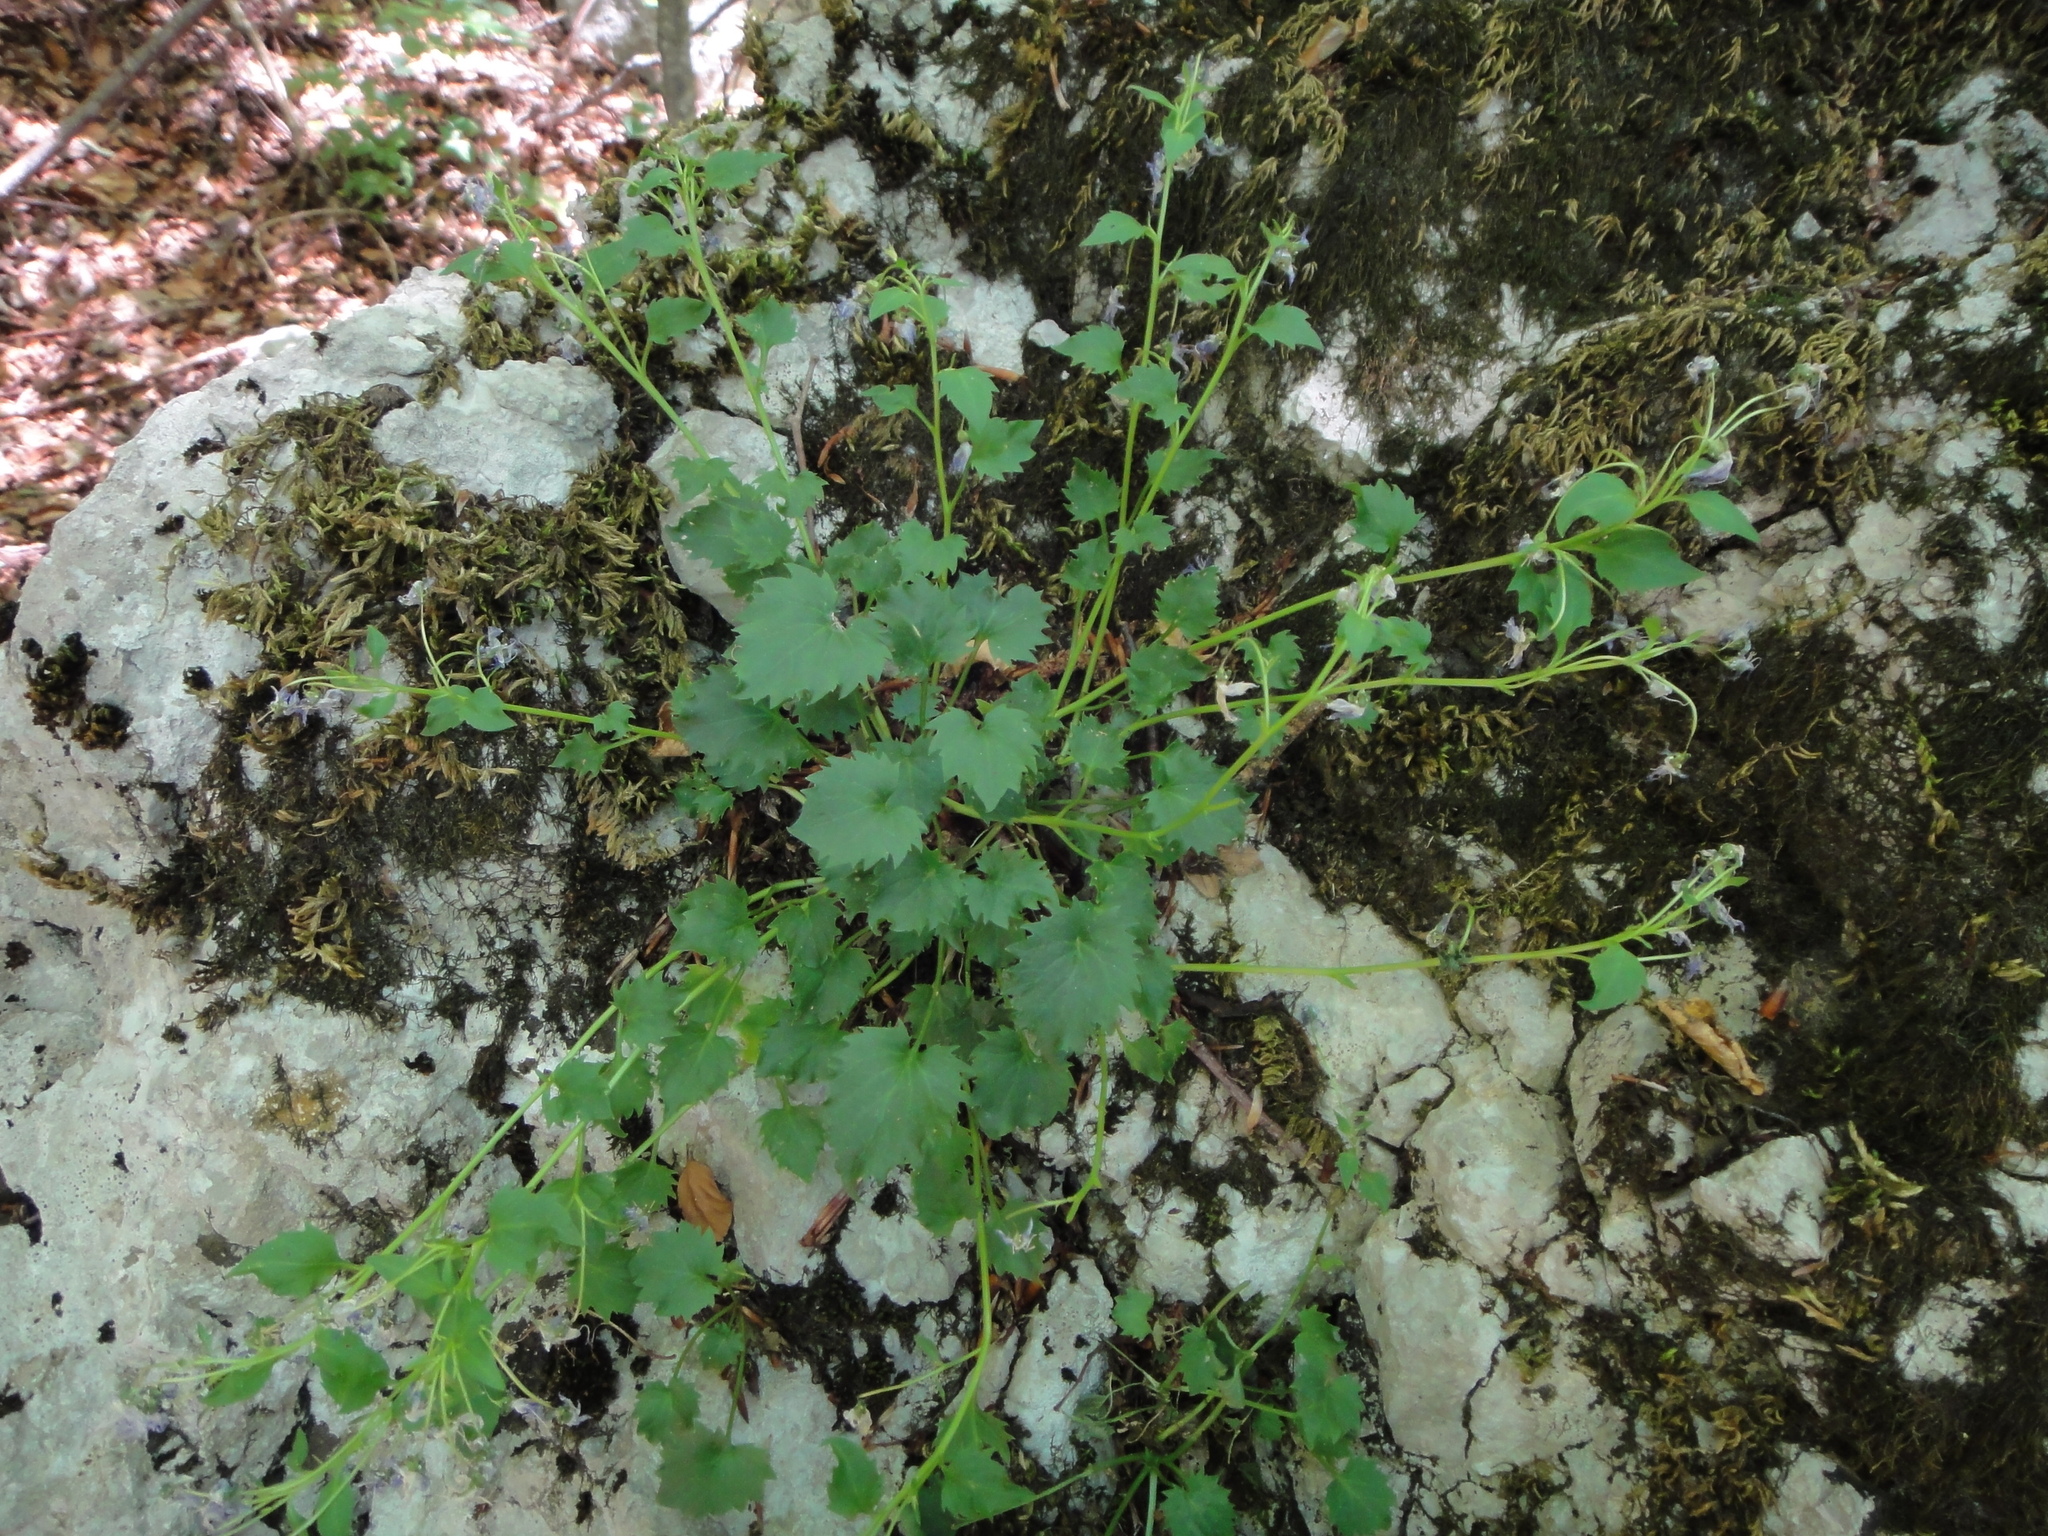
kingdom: Plantae
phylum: Tracheophyta
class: Magnoliopsida
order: Asterales
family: Campanulaceae
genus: Campanula
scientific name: Campanula fenestrellata
